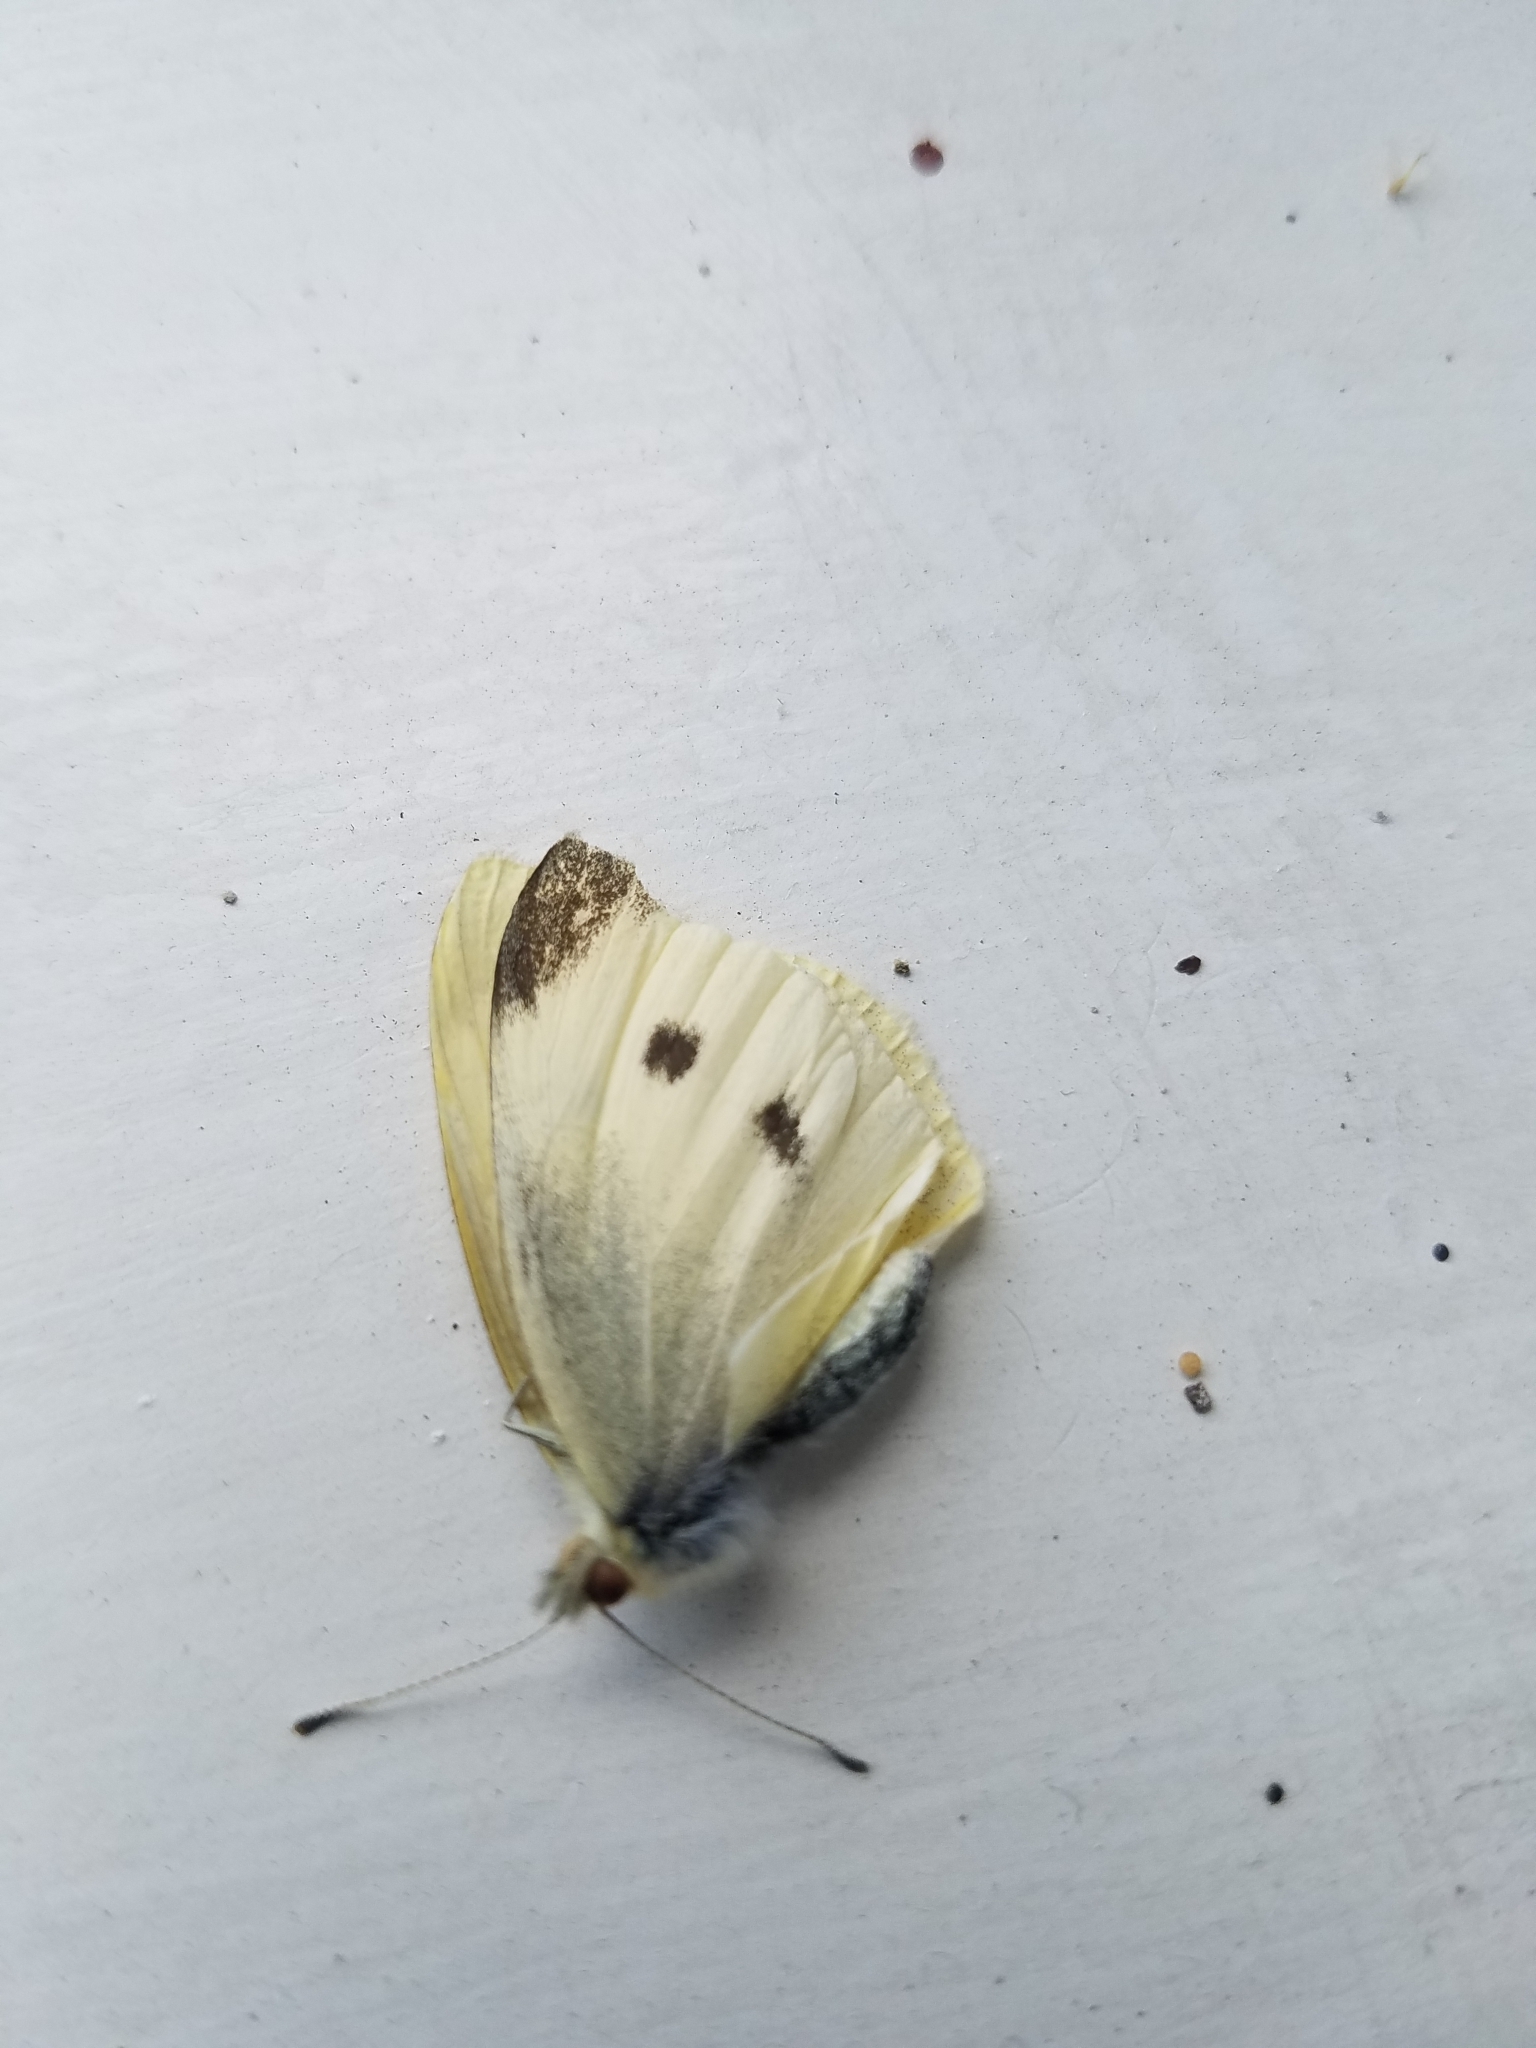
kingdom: Animalia
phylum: Arthropoda
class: Insecta
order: Lepidoptera
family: Pieridae
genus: Pieris
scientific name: Pieris rapae
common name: Small white
